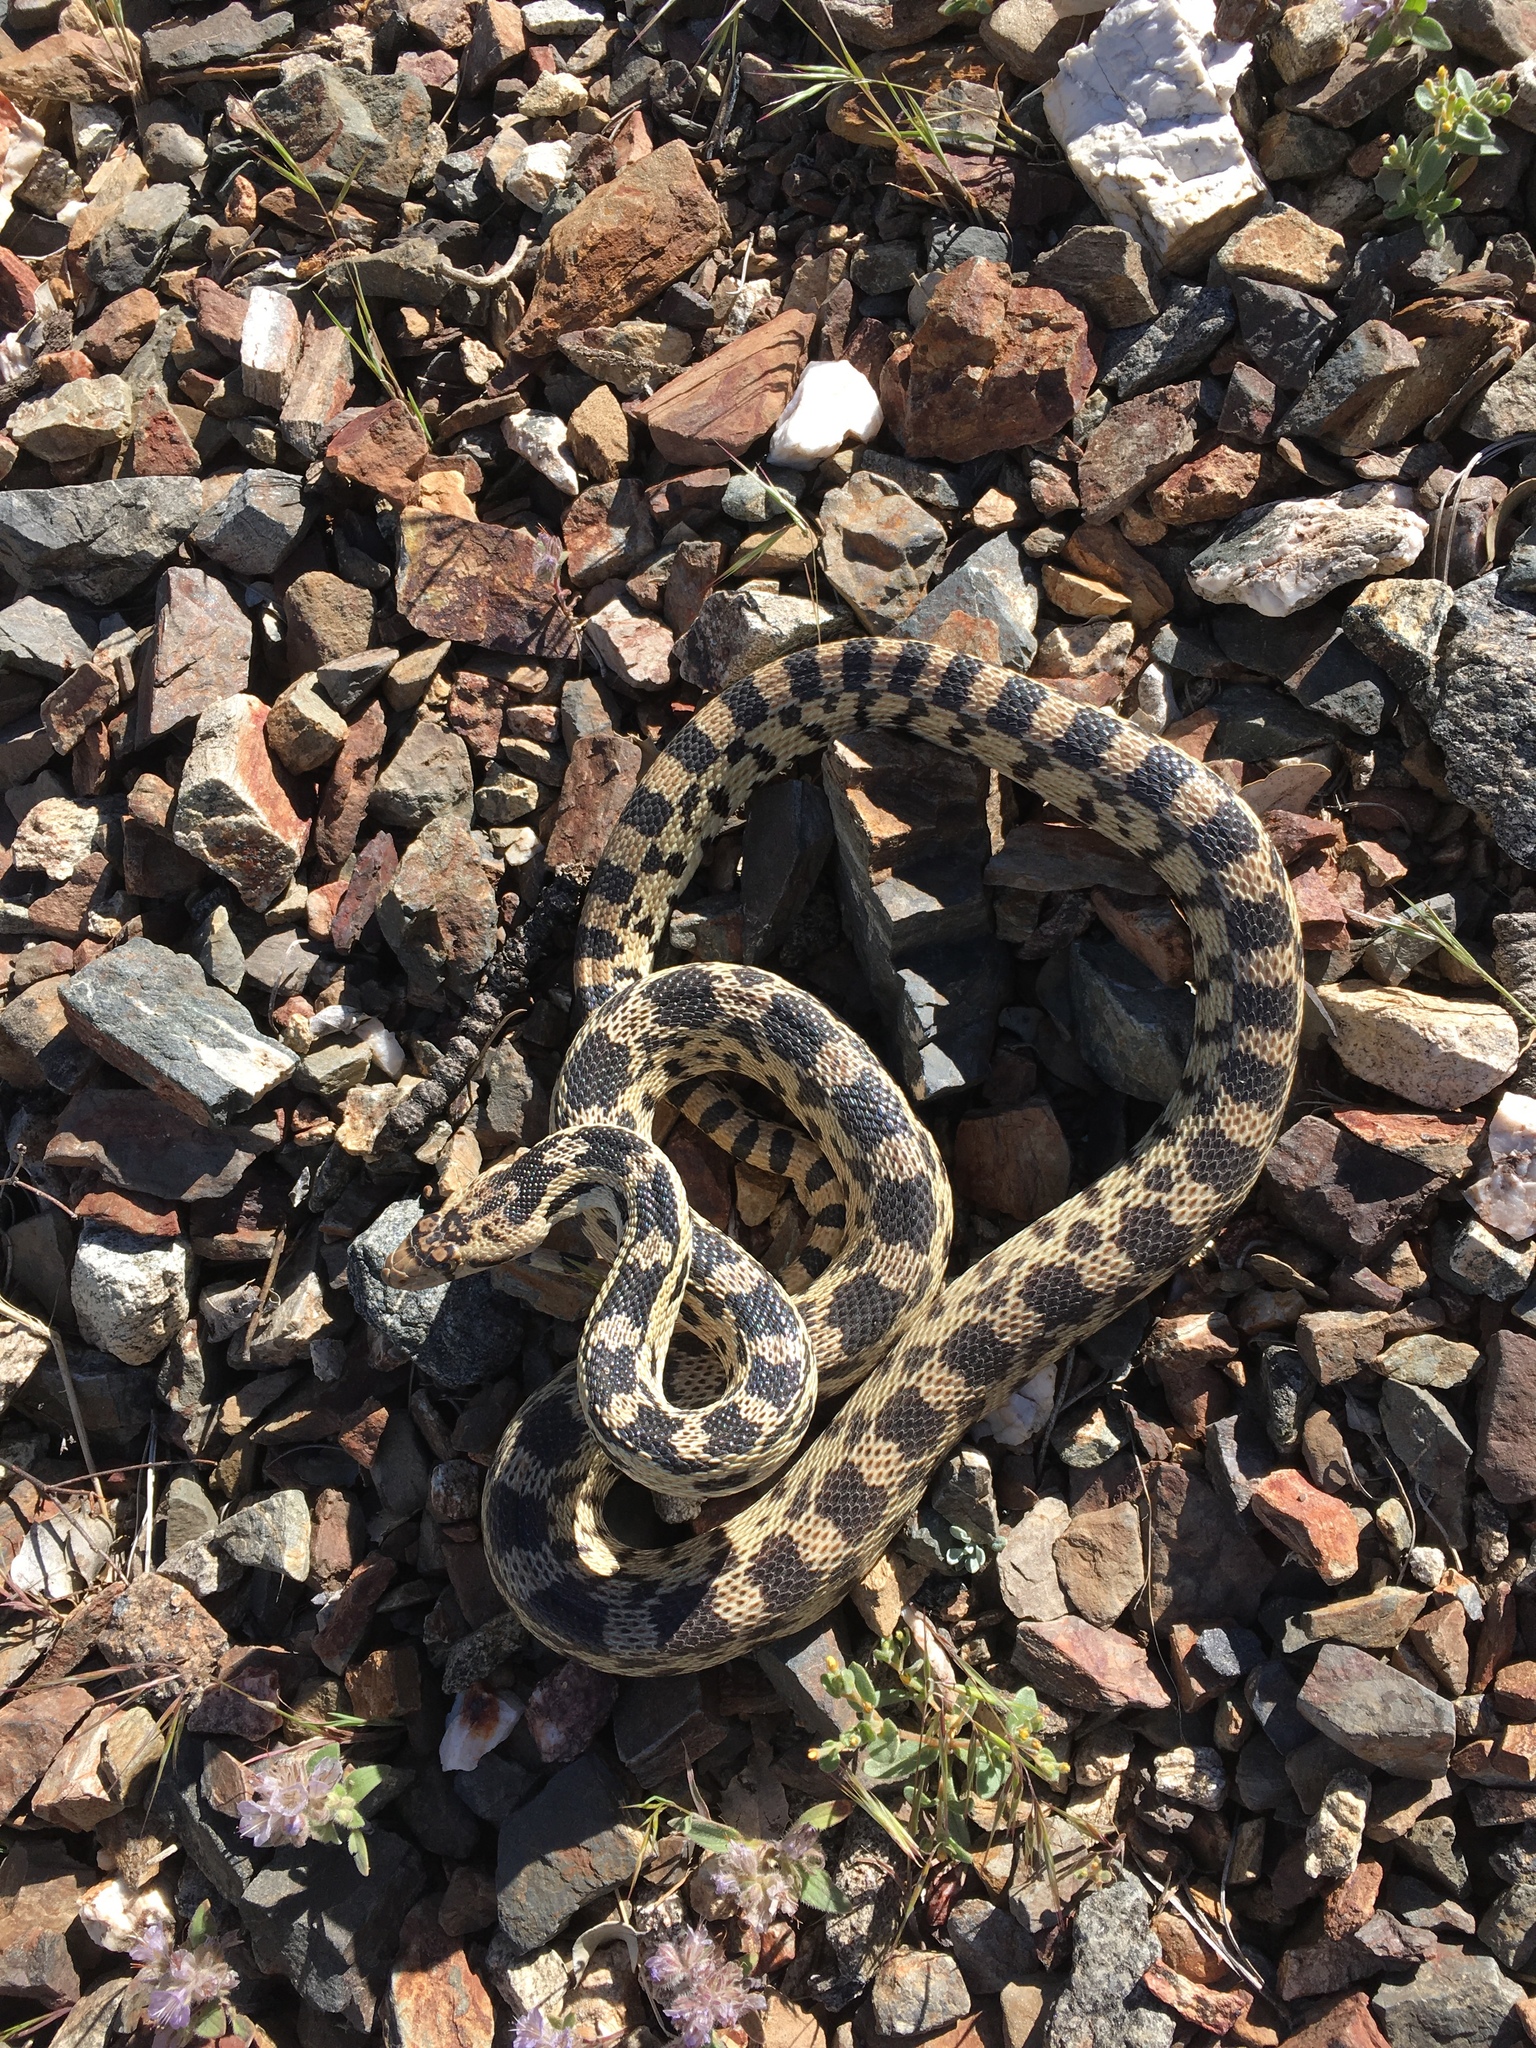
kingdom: Animalia
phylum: Chordata
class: Squamata
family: Colubridae
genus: Pituophis
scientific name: Pituophis catenifer
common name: Gopher snake
